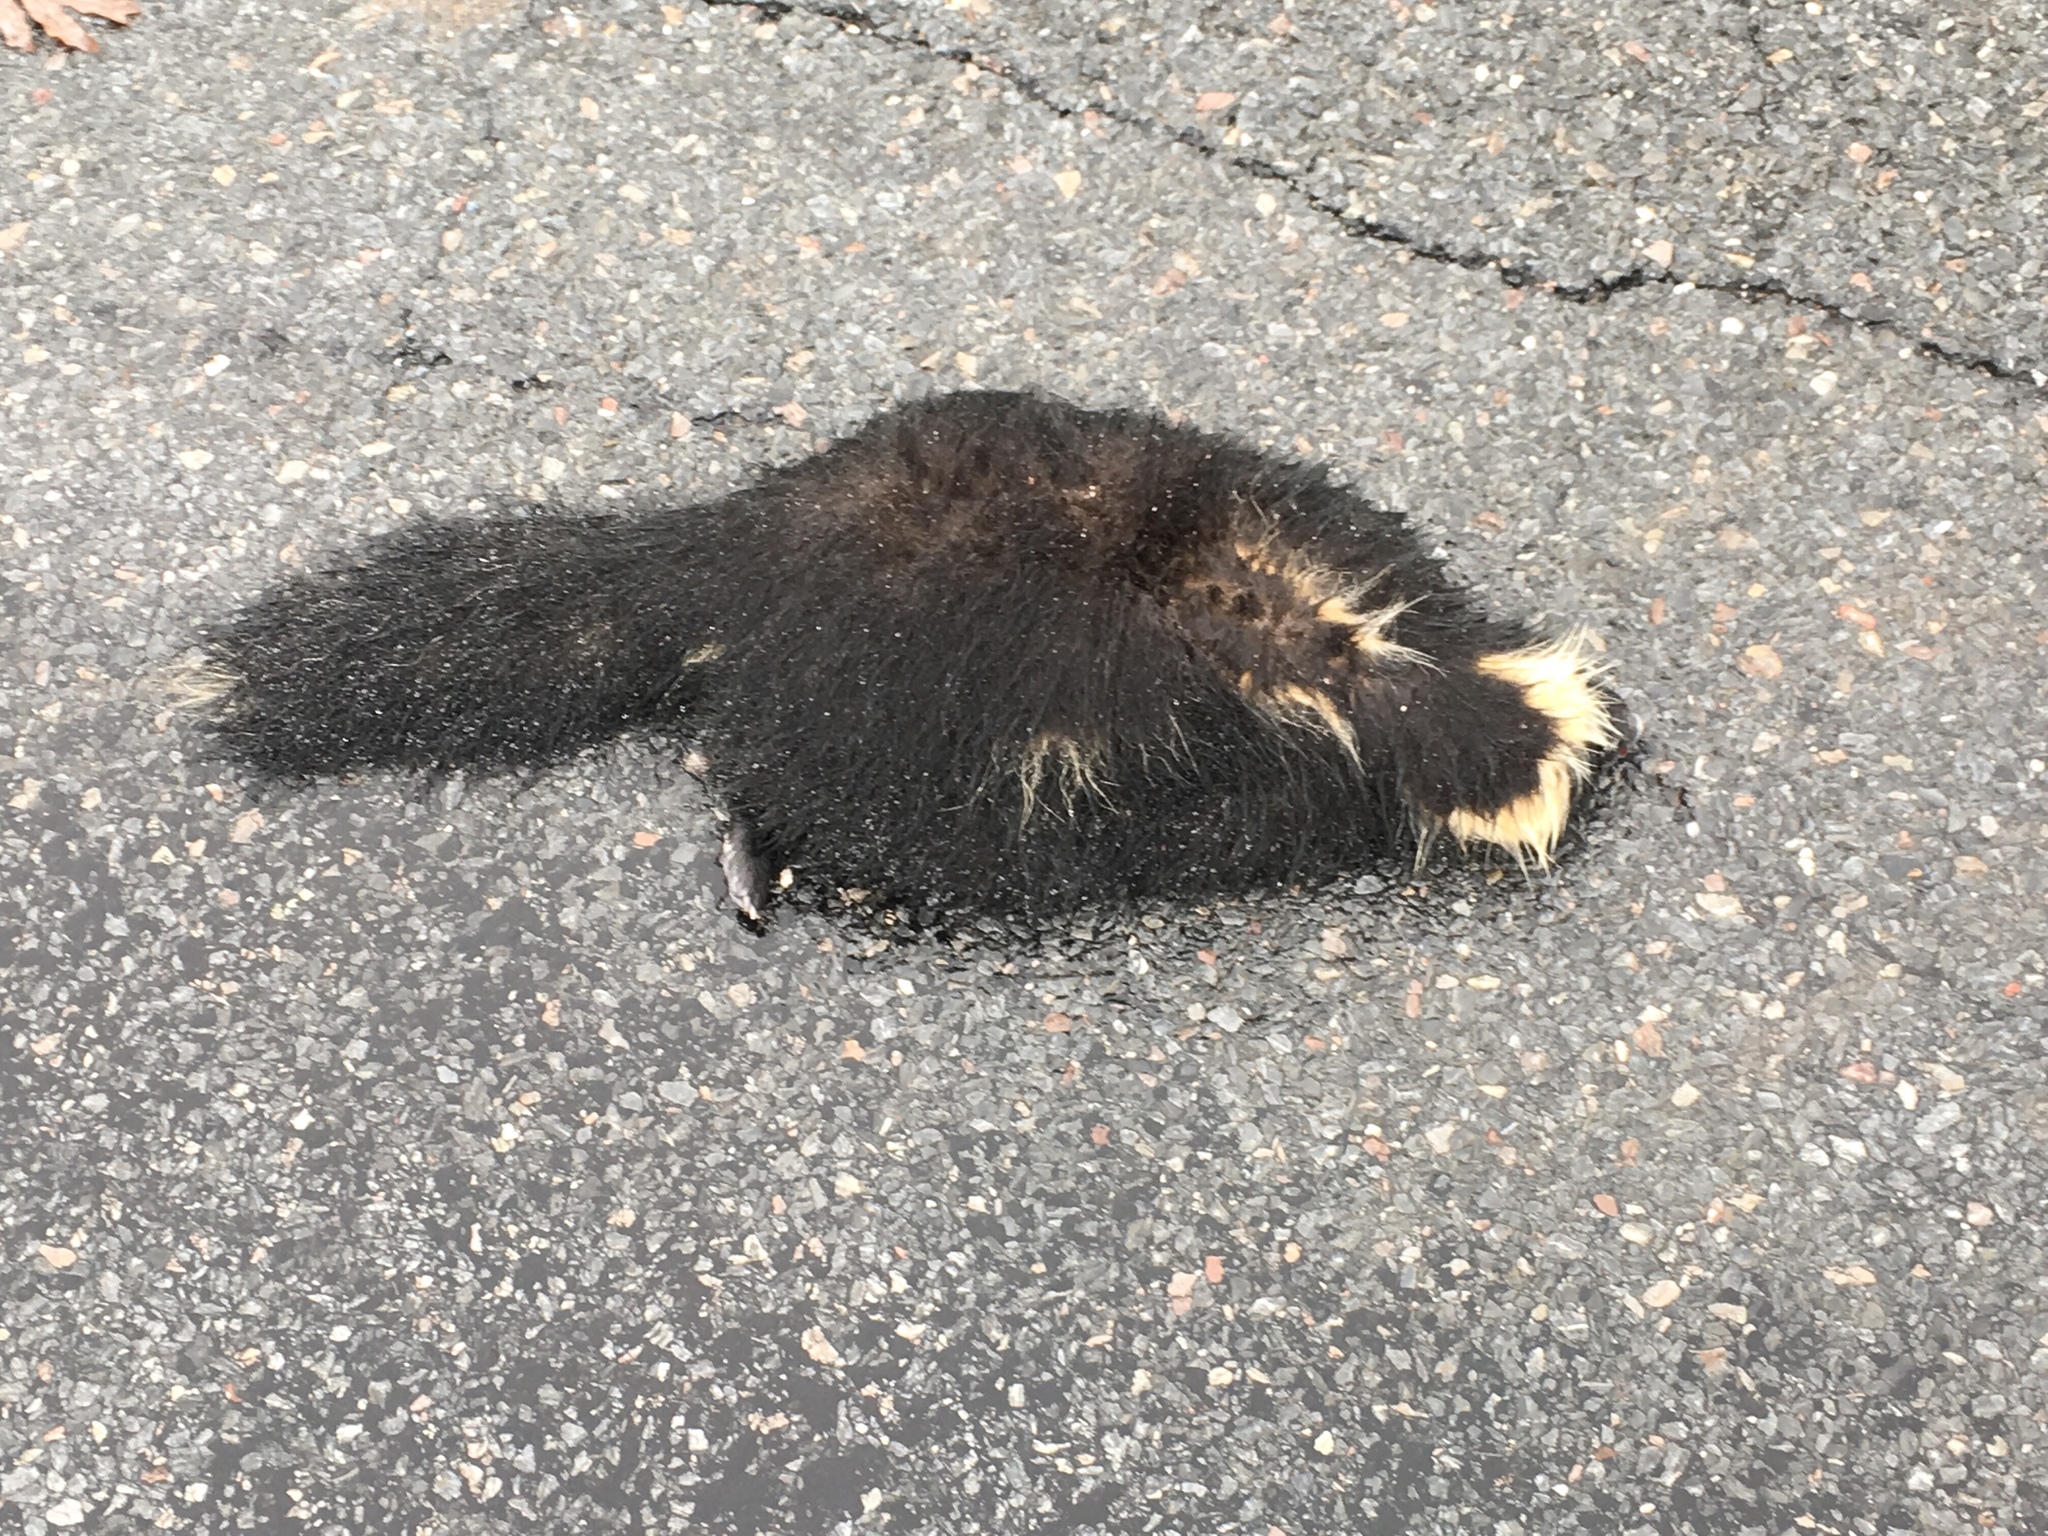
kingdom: Animalia
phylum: Chordata
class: Mammalia
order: Carnivora
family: Mephitidae
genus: Mephitis
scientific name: Mephitis mephitis
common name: Striped skunk
